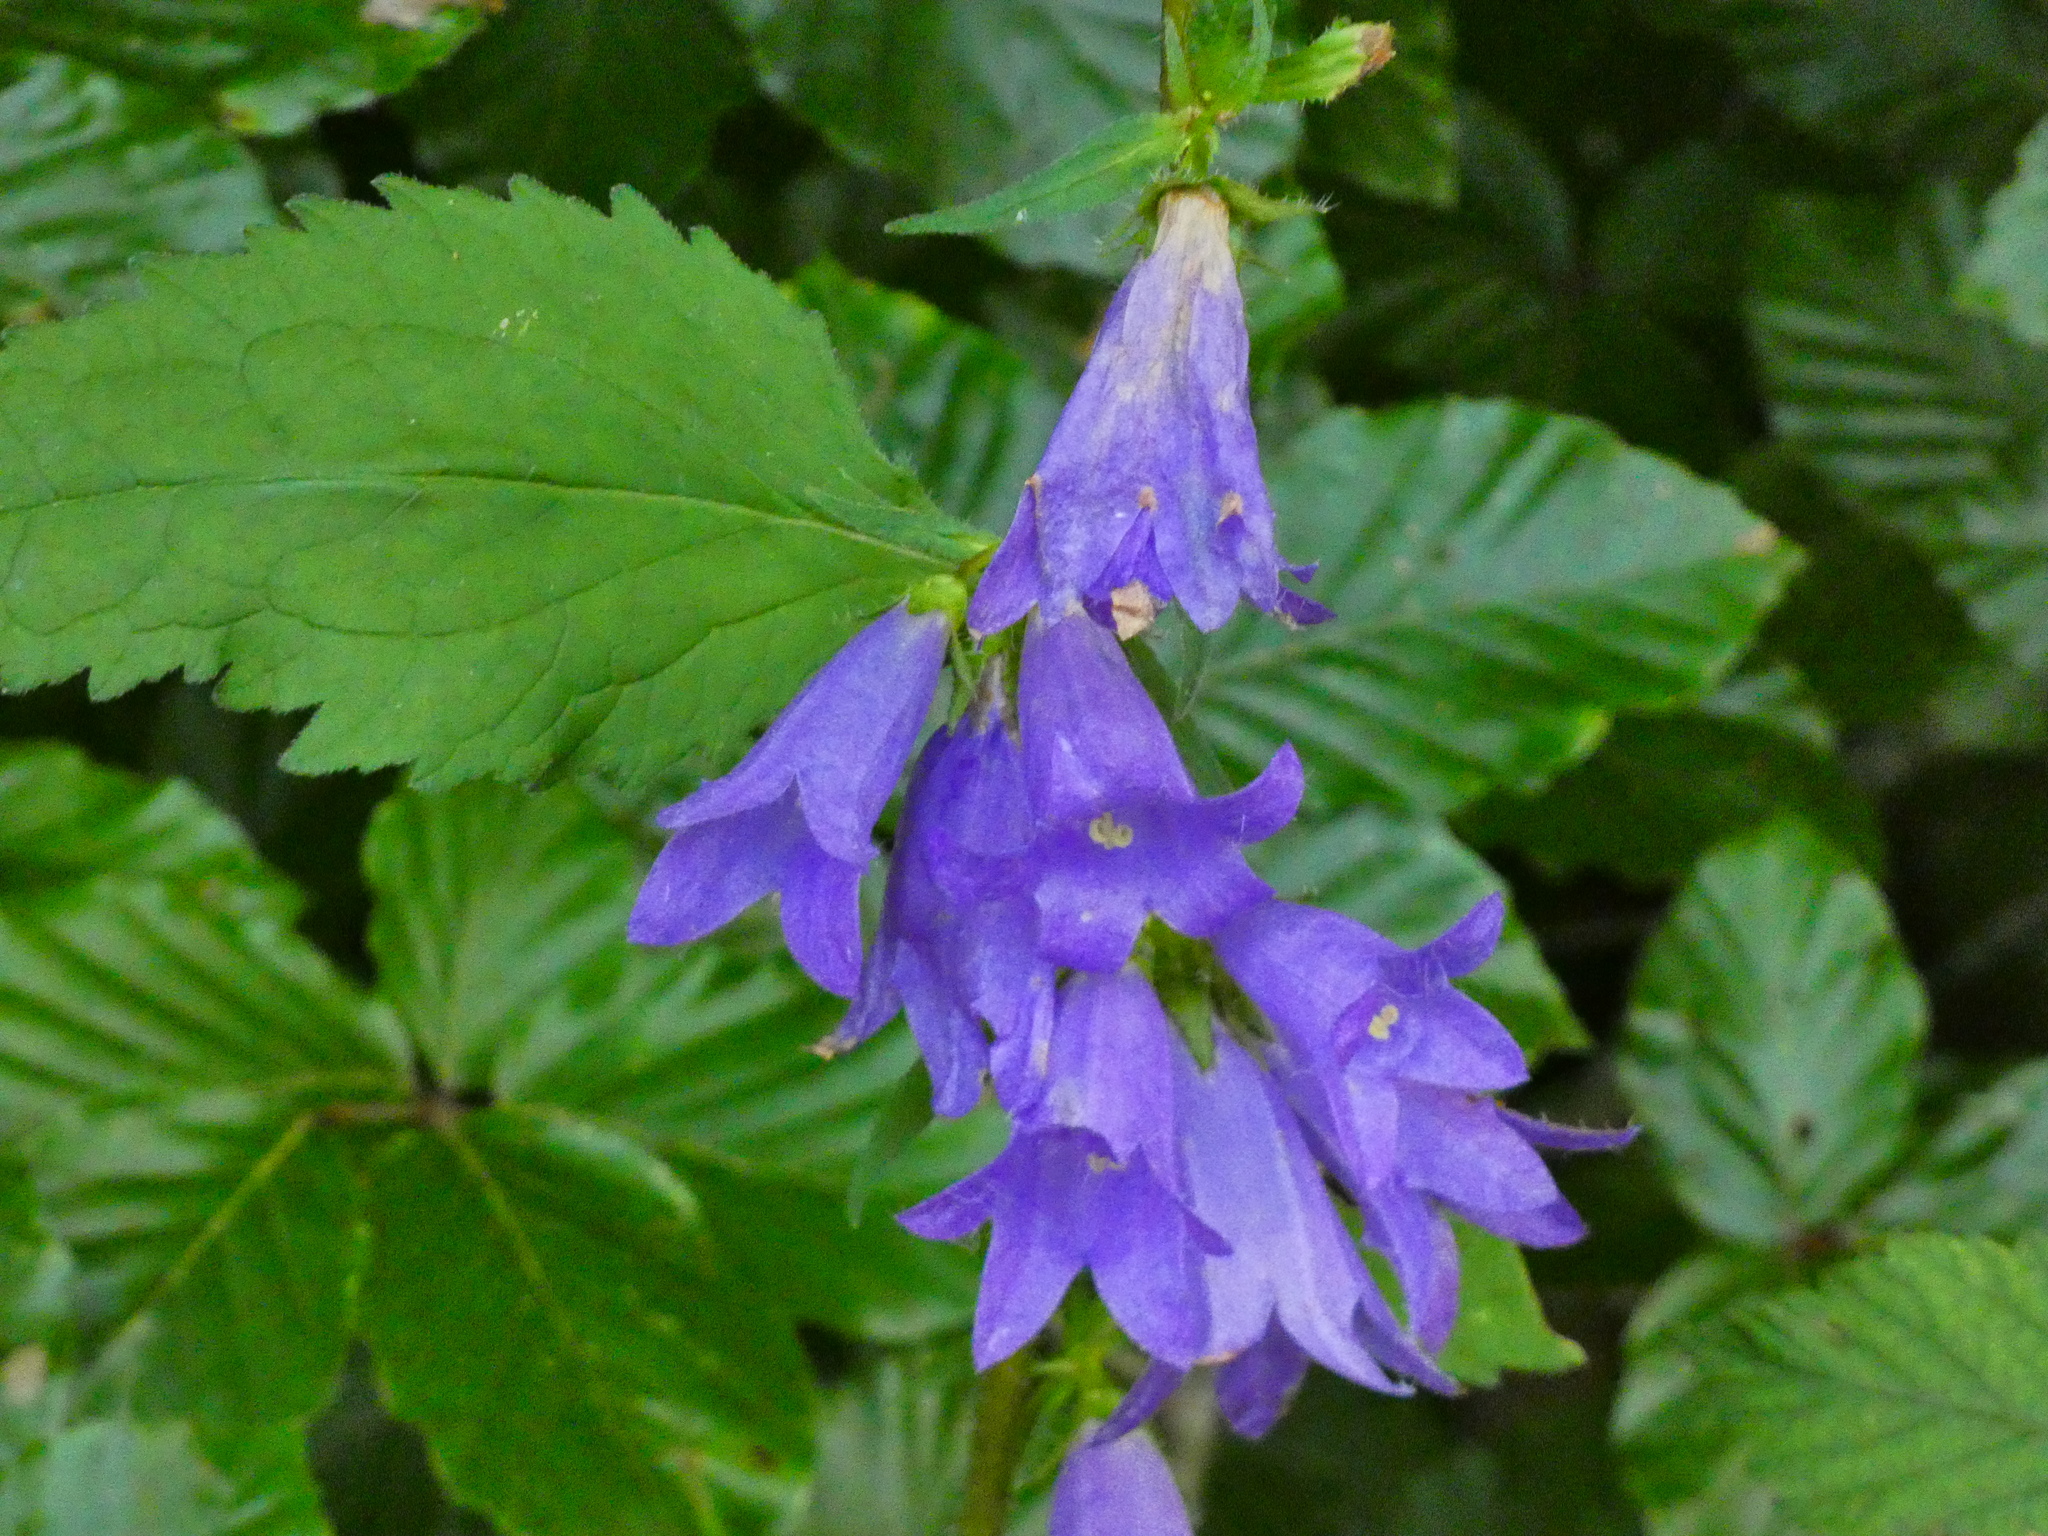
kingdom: Plantae
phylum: Tracheophyta
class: Magnoliopsida
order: Asterales
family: Campanulaceae
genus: Campanula
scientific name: Campanula trachelium
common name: Nettle-leaved bellflower
